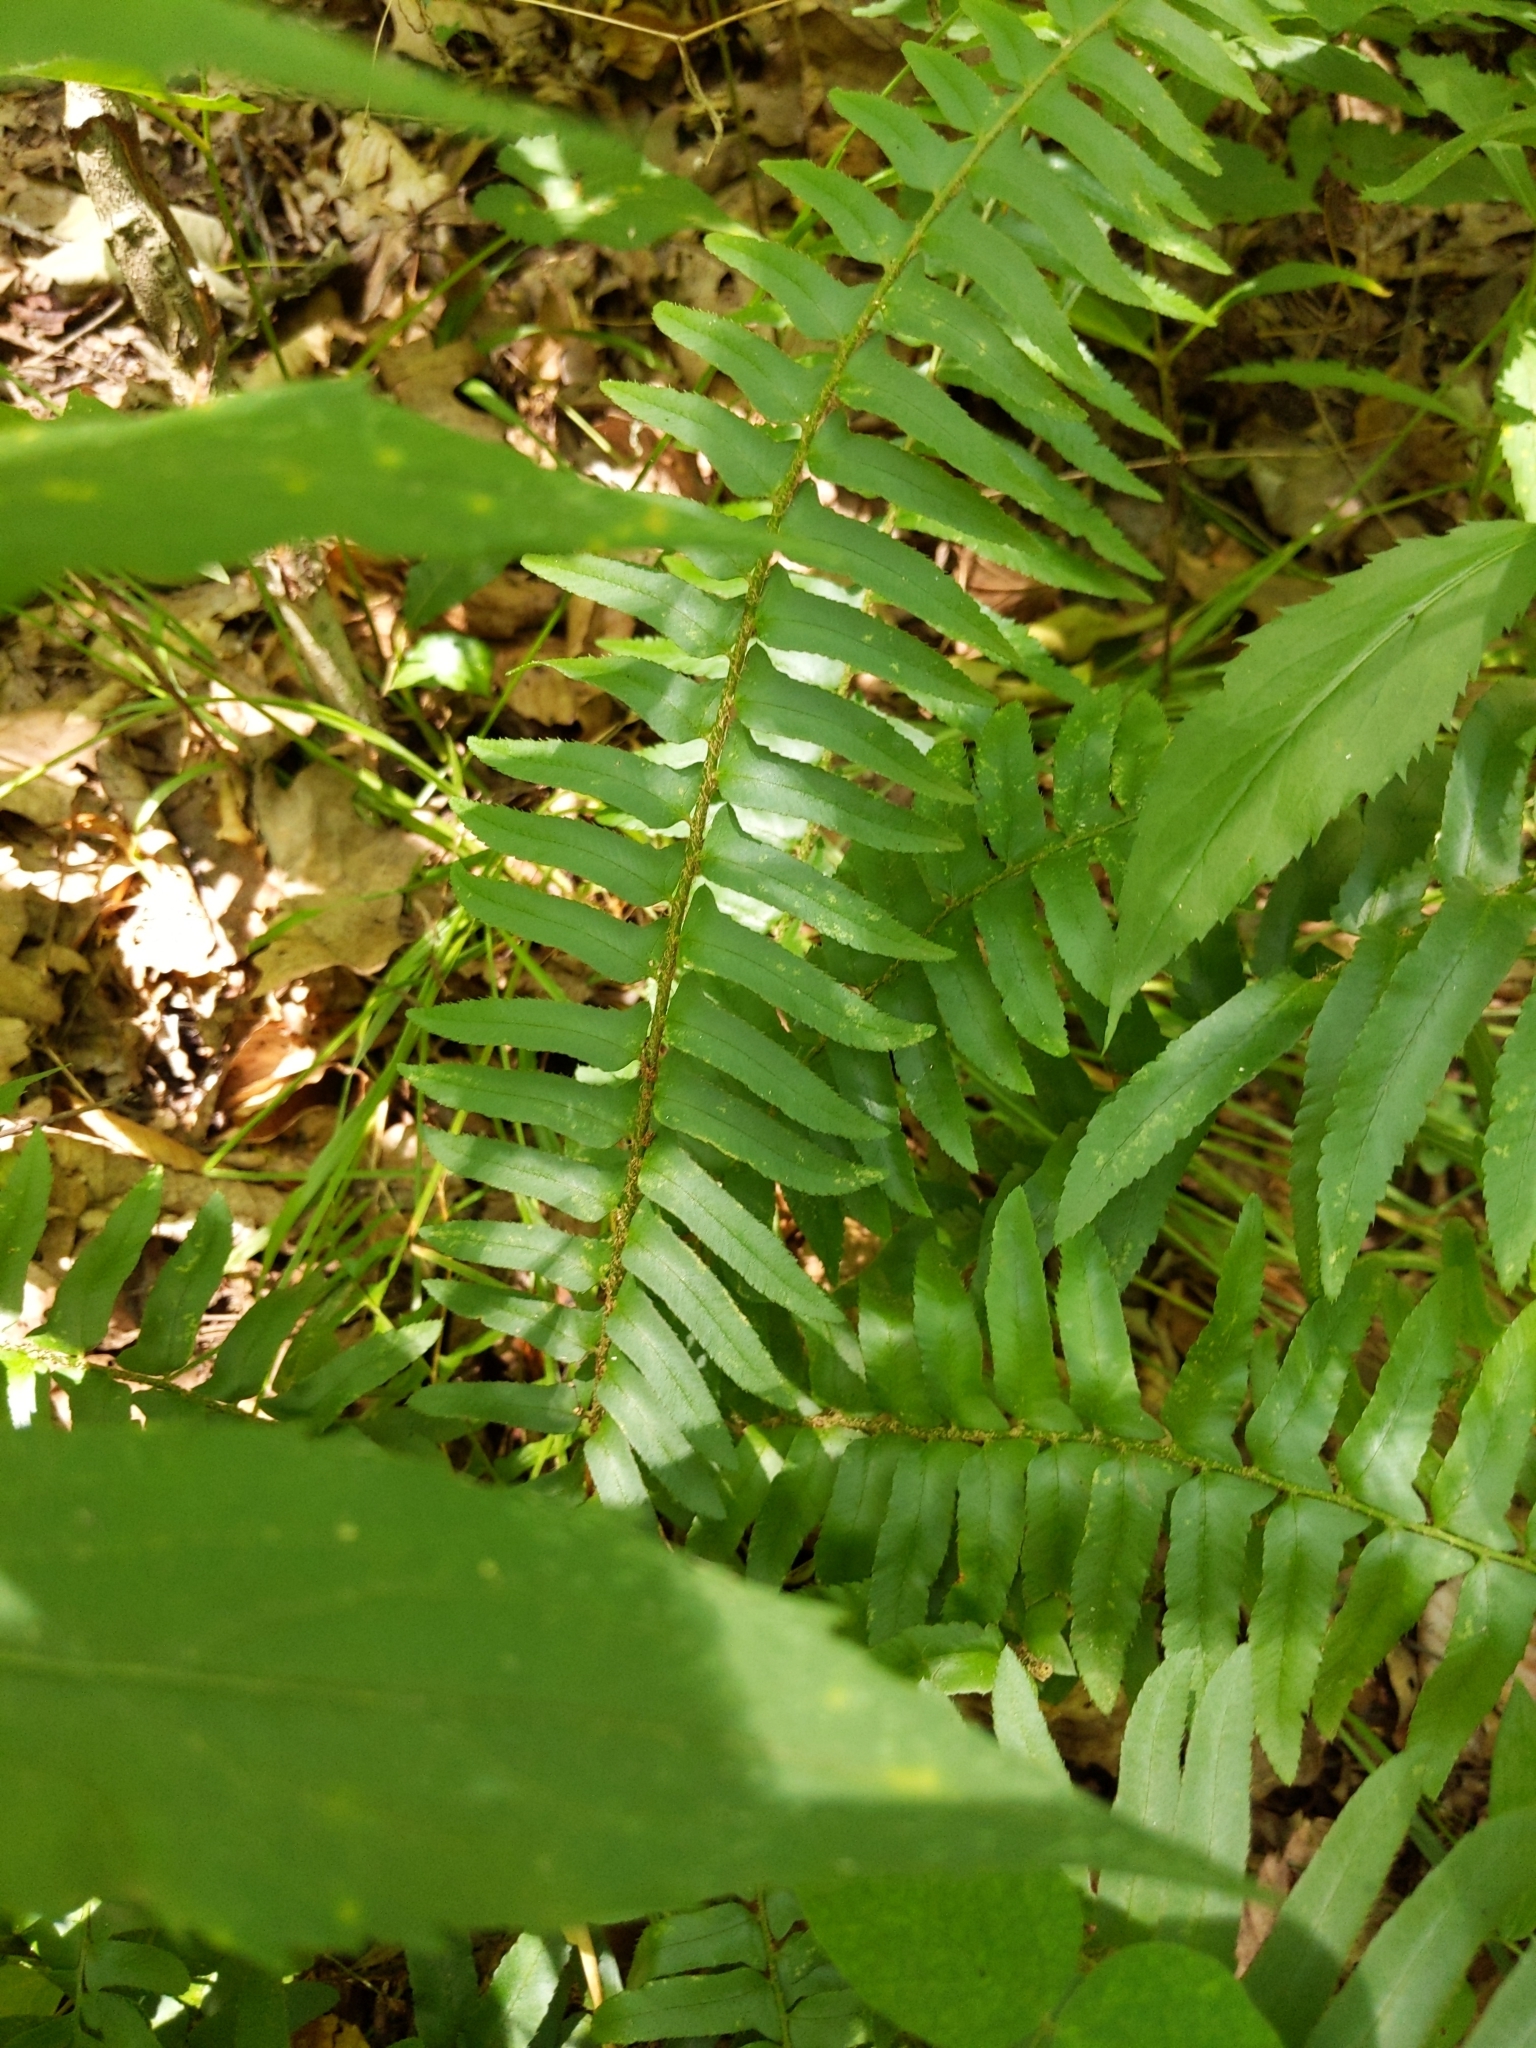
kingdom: Plantae
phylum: Tracheophyta
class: Polypodiopsida
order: Polypodiales
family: Dryopteridaceae
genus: Polystichum
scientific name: Polystichum acrostichoides
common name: Christmas fern
